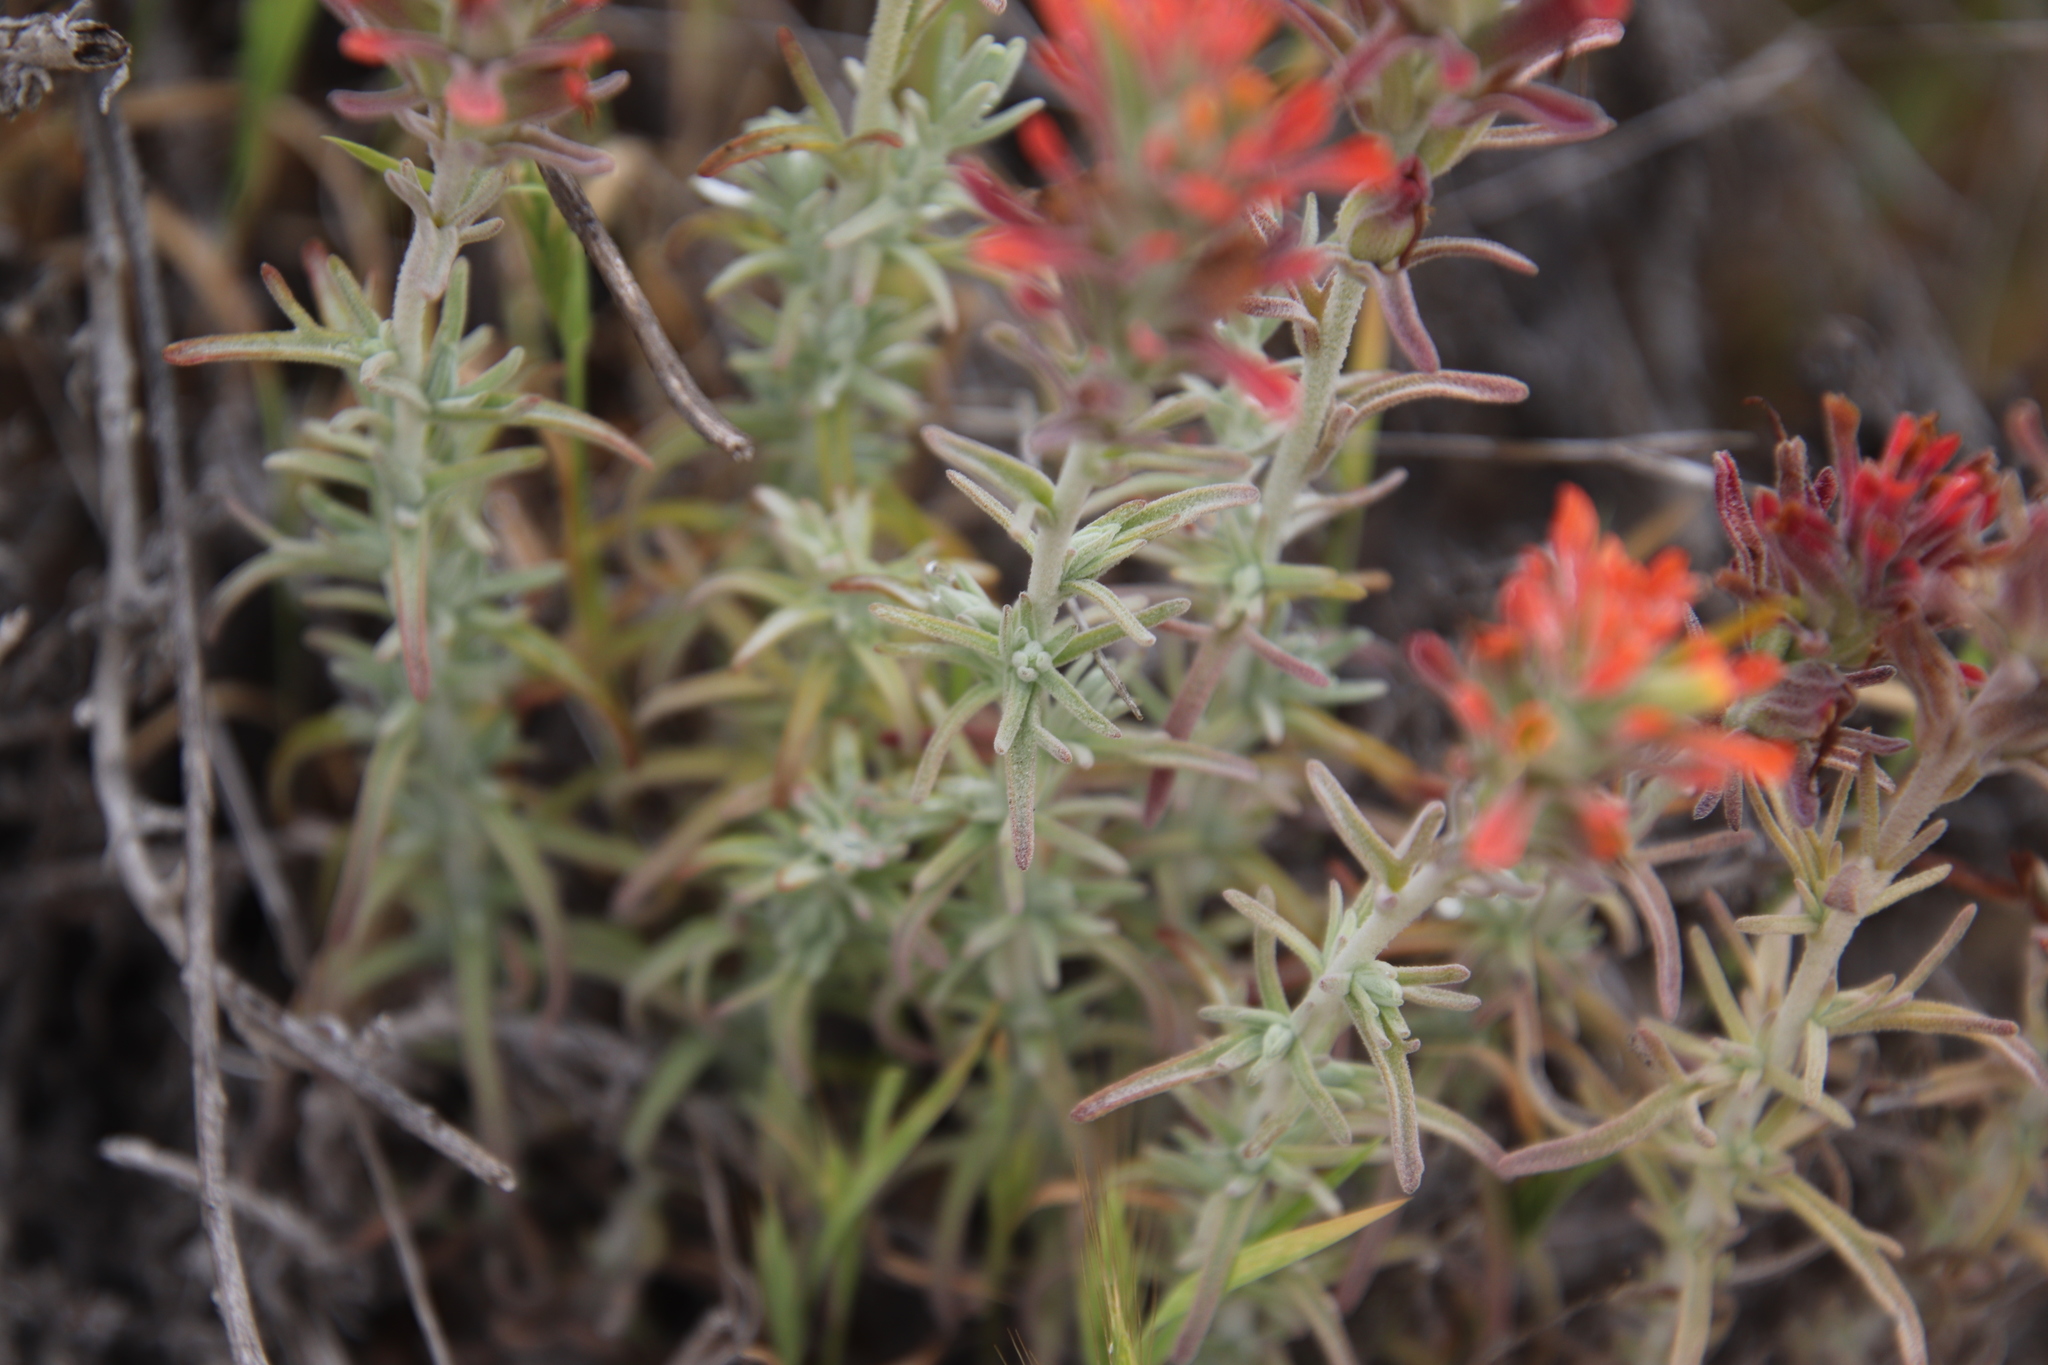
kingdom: Plantae
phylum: Tracheophyta
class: Magnoliopsida
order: Lamiales
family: Orobanchaceae
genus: Castilleja
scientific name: Castilleja foliolosa
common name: Woolly indian paintbrush
